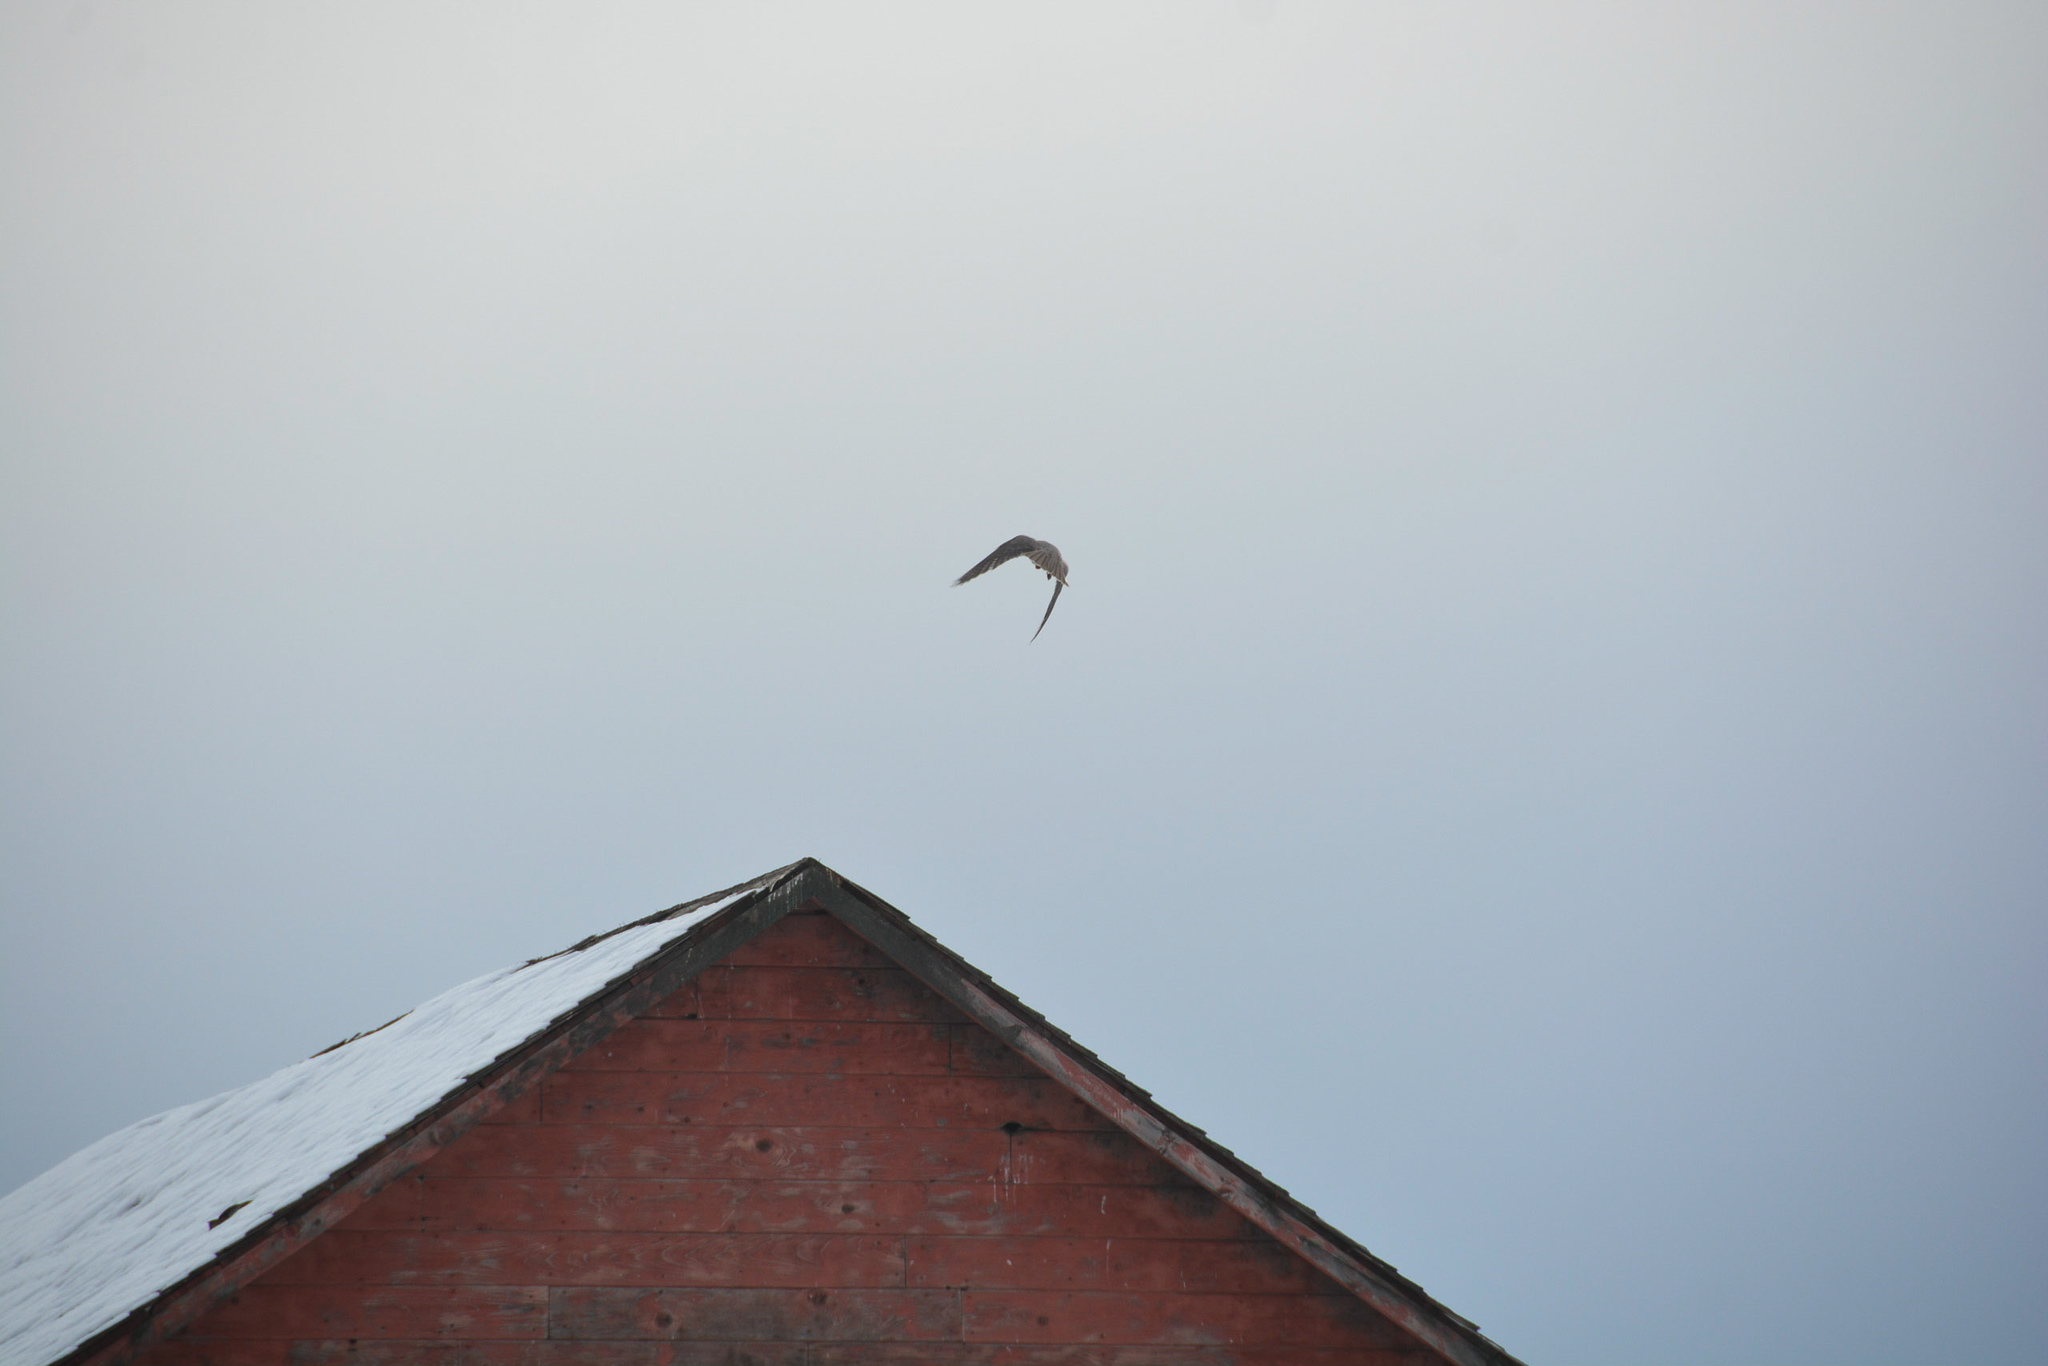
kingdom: Animalia
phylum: Chordata
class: Aves
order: Falconiformes
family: Falconidae
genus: Falco
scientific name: Falco mexicanus
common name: Prairie falcon
